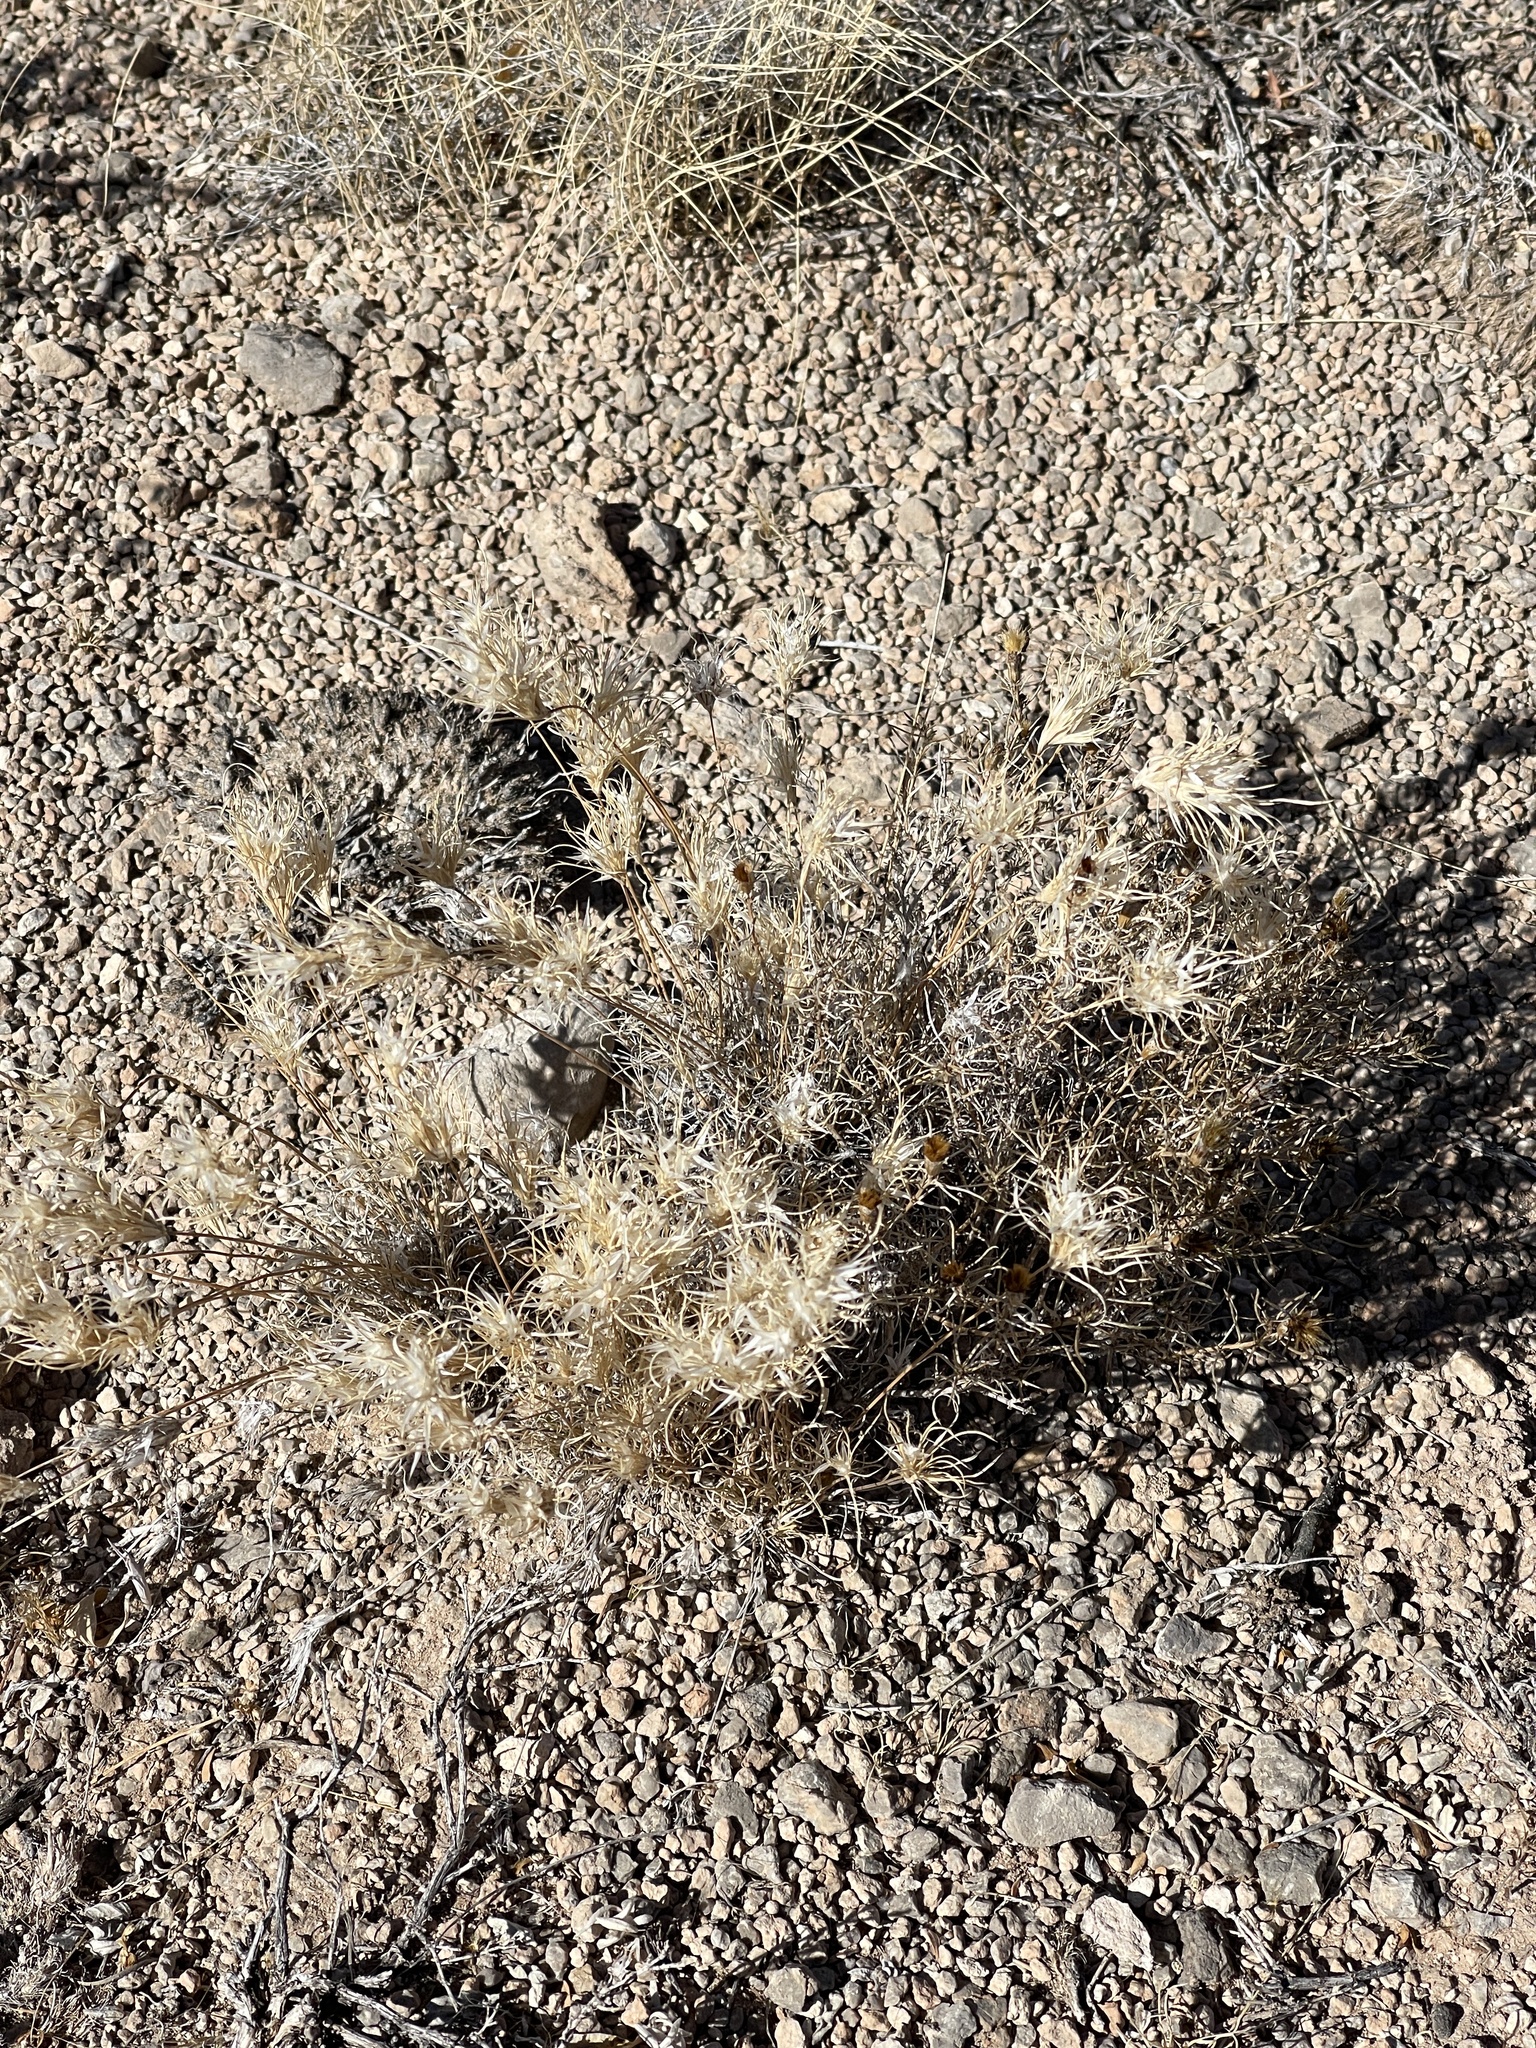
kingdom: Plantae
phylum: Tracheophyta
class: Liliopsida
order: Poales
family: Poaceae
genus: Dasyochloa
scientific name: Dasyochloa pulchella
